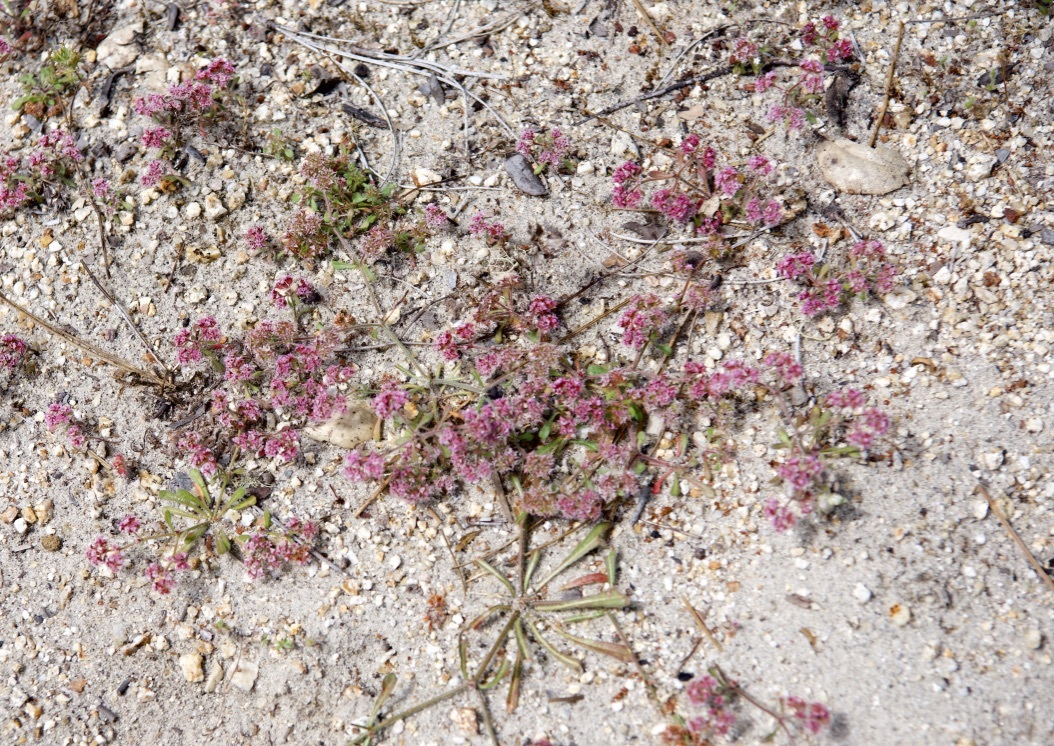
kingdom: Plantae
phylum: Tracheophyta
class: Magnoliopsida
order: Caryophyllales
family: Polygonaceae
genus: Chorizanthe
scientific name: Chorizanthe pungens
